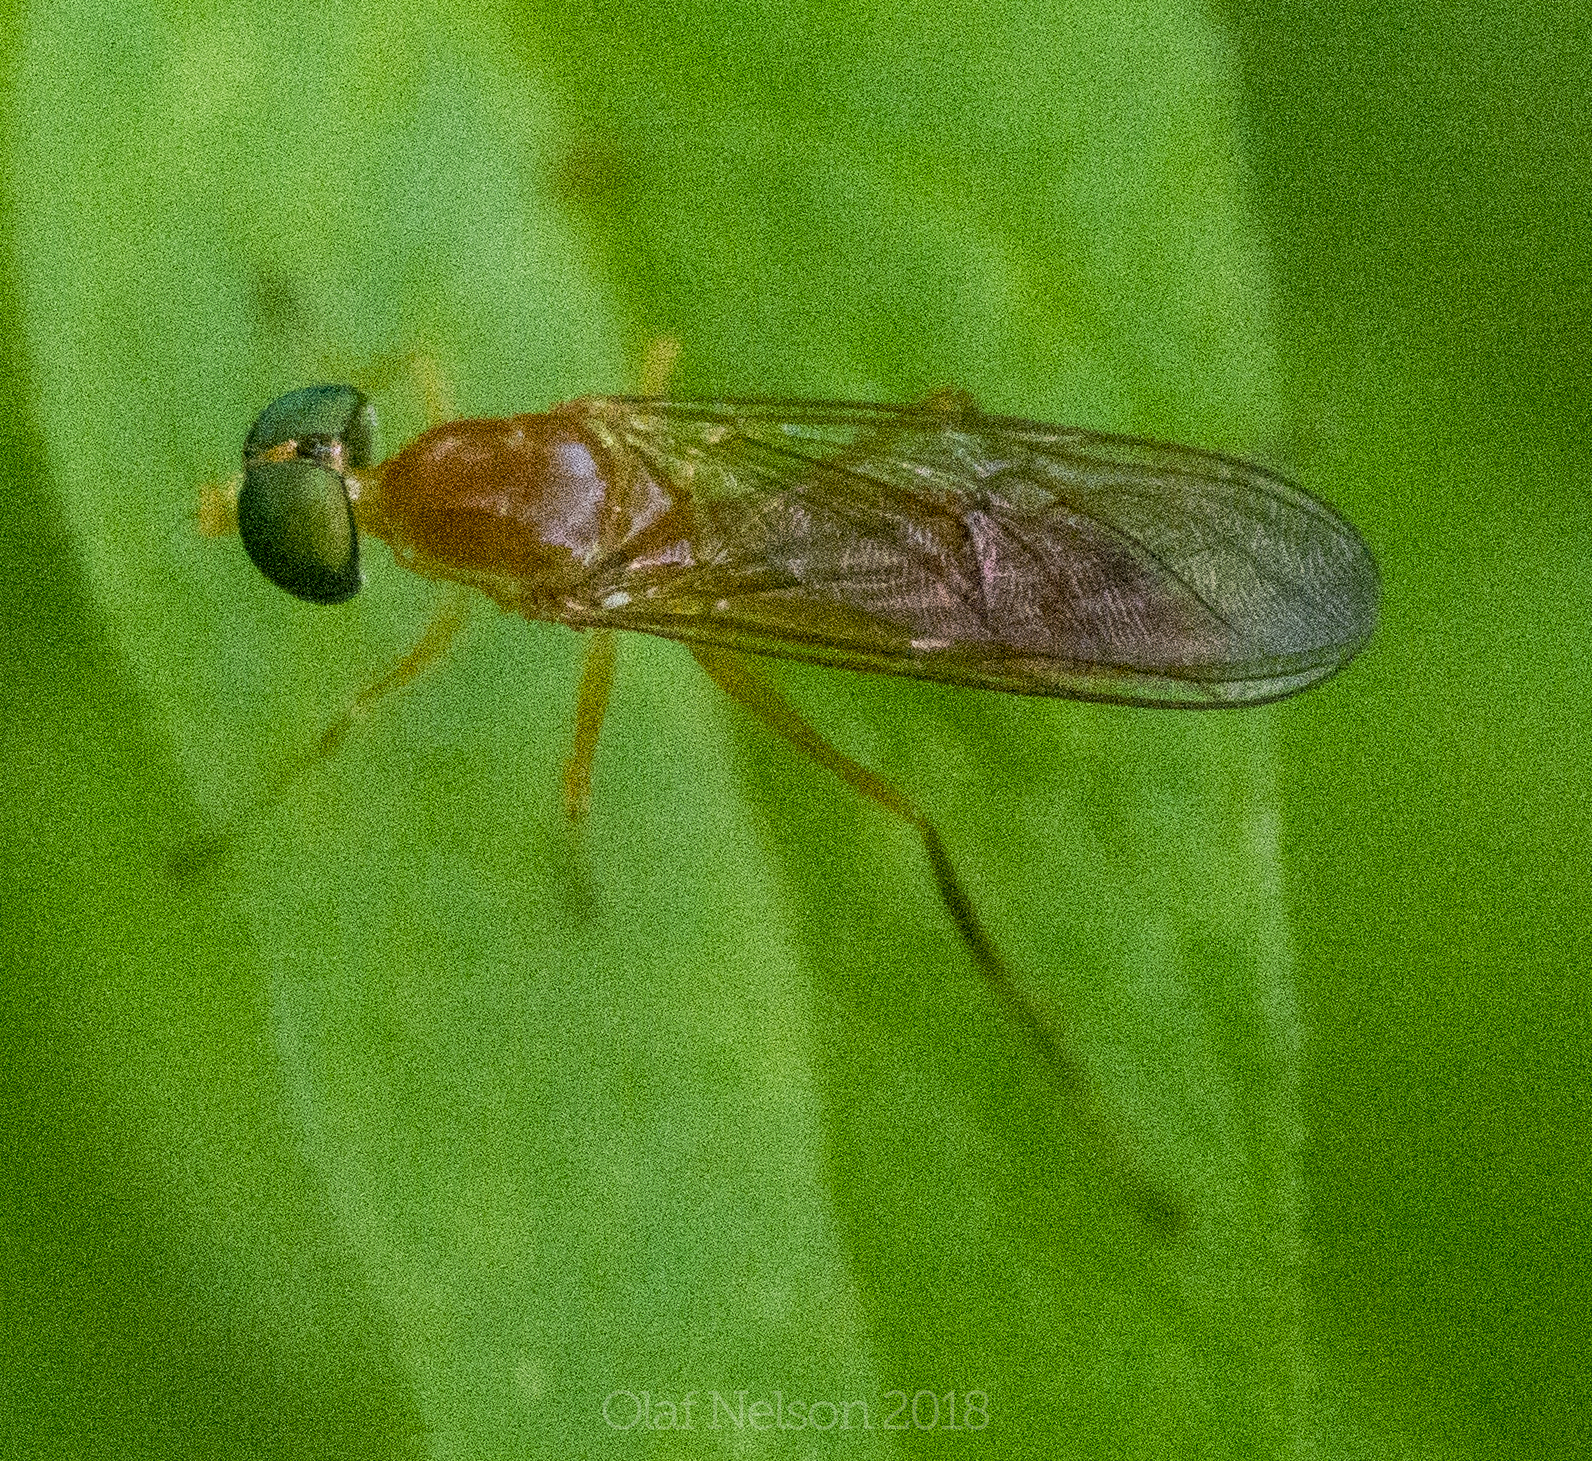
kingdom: Animalia
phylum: Arthropoda
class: Insecta
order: Diptera
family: Stratiomyidae
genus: Ptecticus
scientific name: Ptecticus trivittatus
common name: Compost fly
